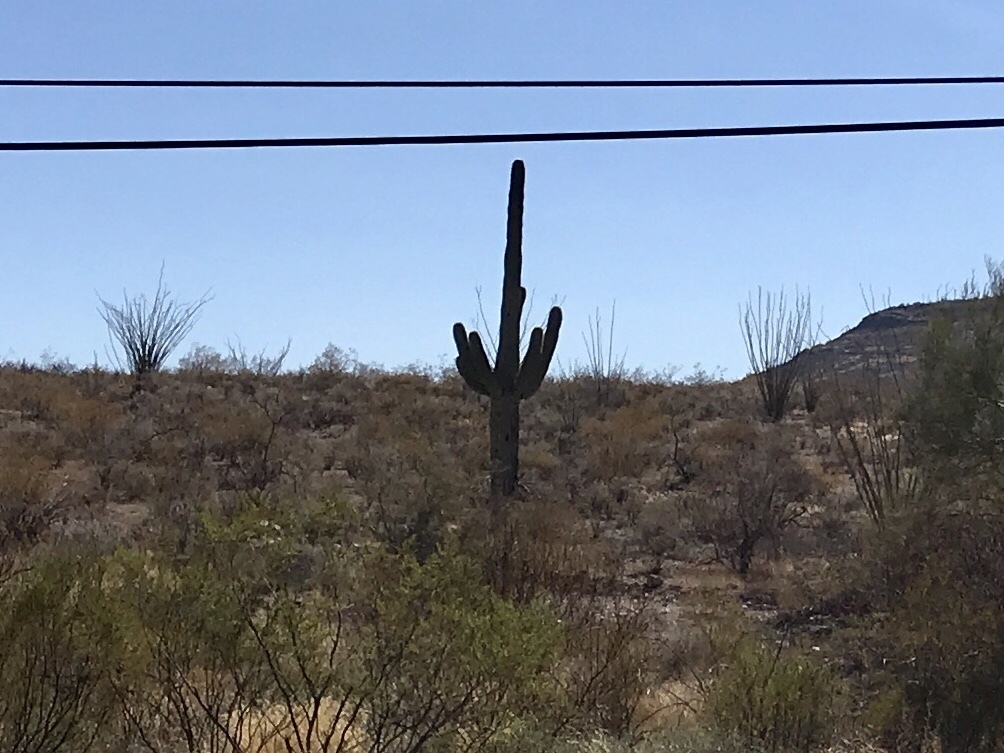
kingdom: Plantae
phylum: Tracheophyta
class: Magnoliopsida
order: Caryophyllales
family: Cactaceae
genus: Carnegiea
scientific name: Carnegiea gigantea
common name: Saguaro
